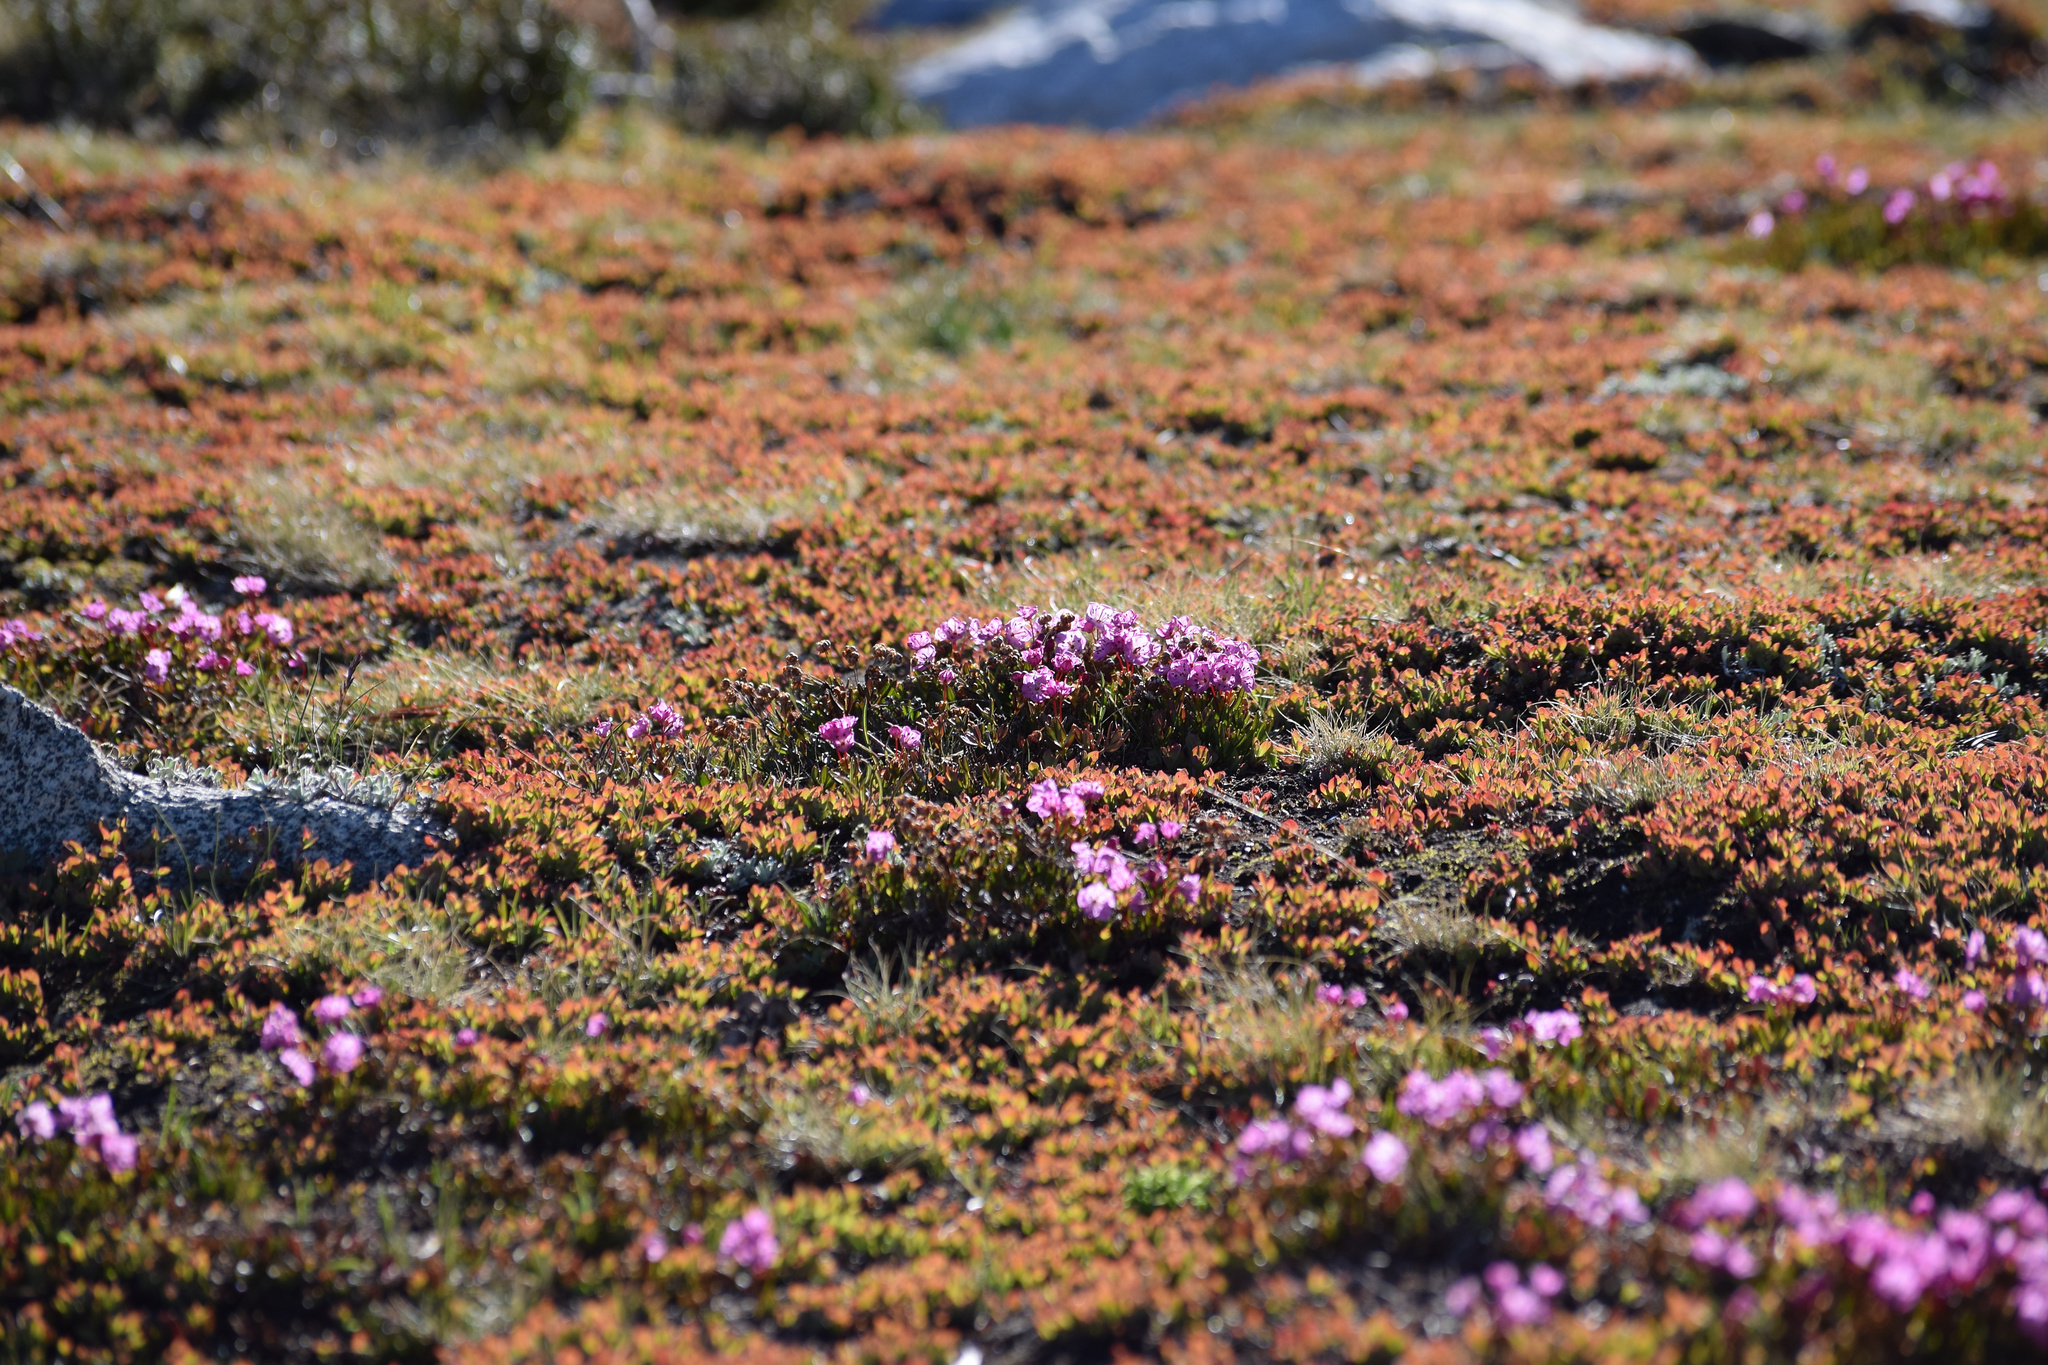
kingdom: Plantae
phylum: Tracheophyta
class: Magnoliopsida
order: Ericales
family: Ericaceae
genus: Kalmia
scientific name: Kalmia microphylla
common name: Alpine bog laurel
